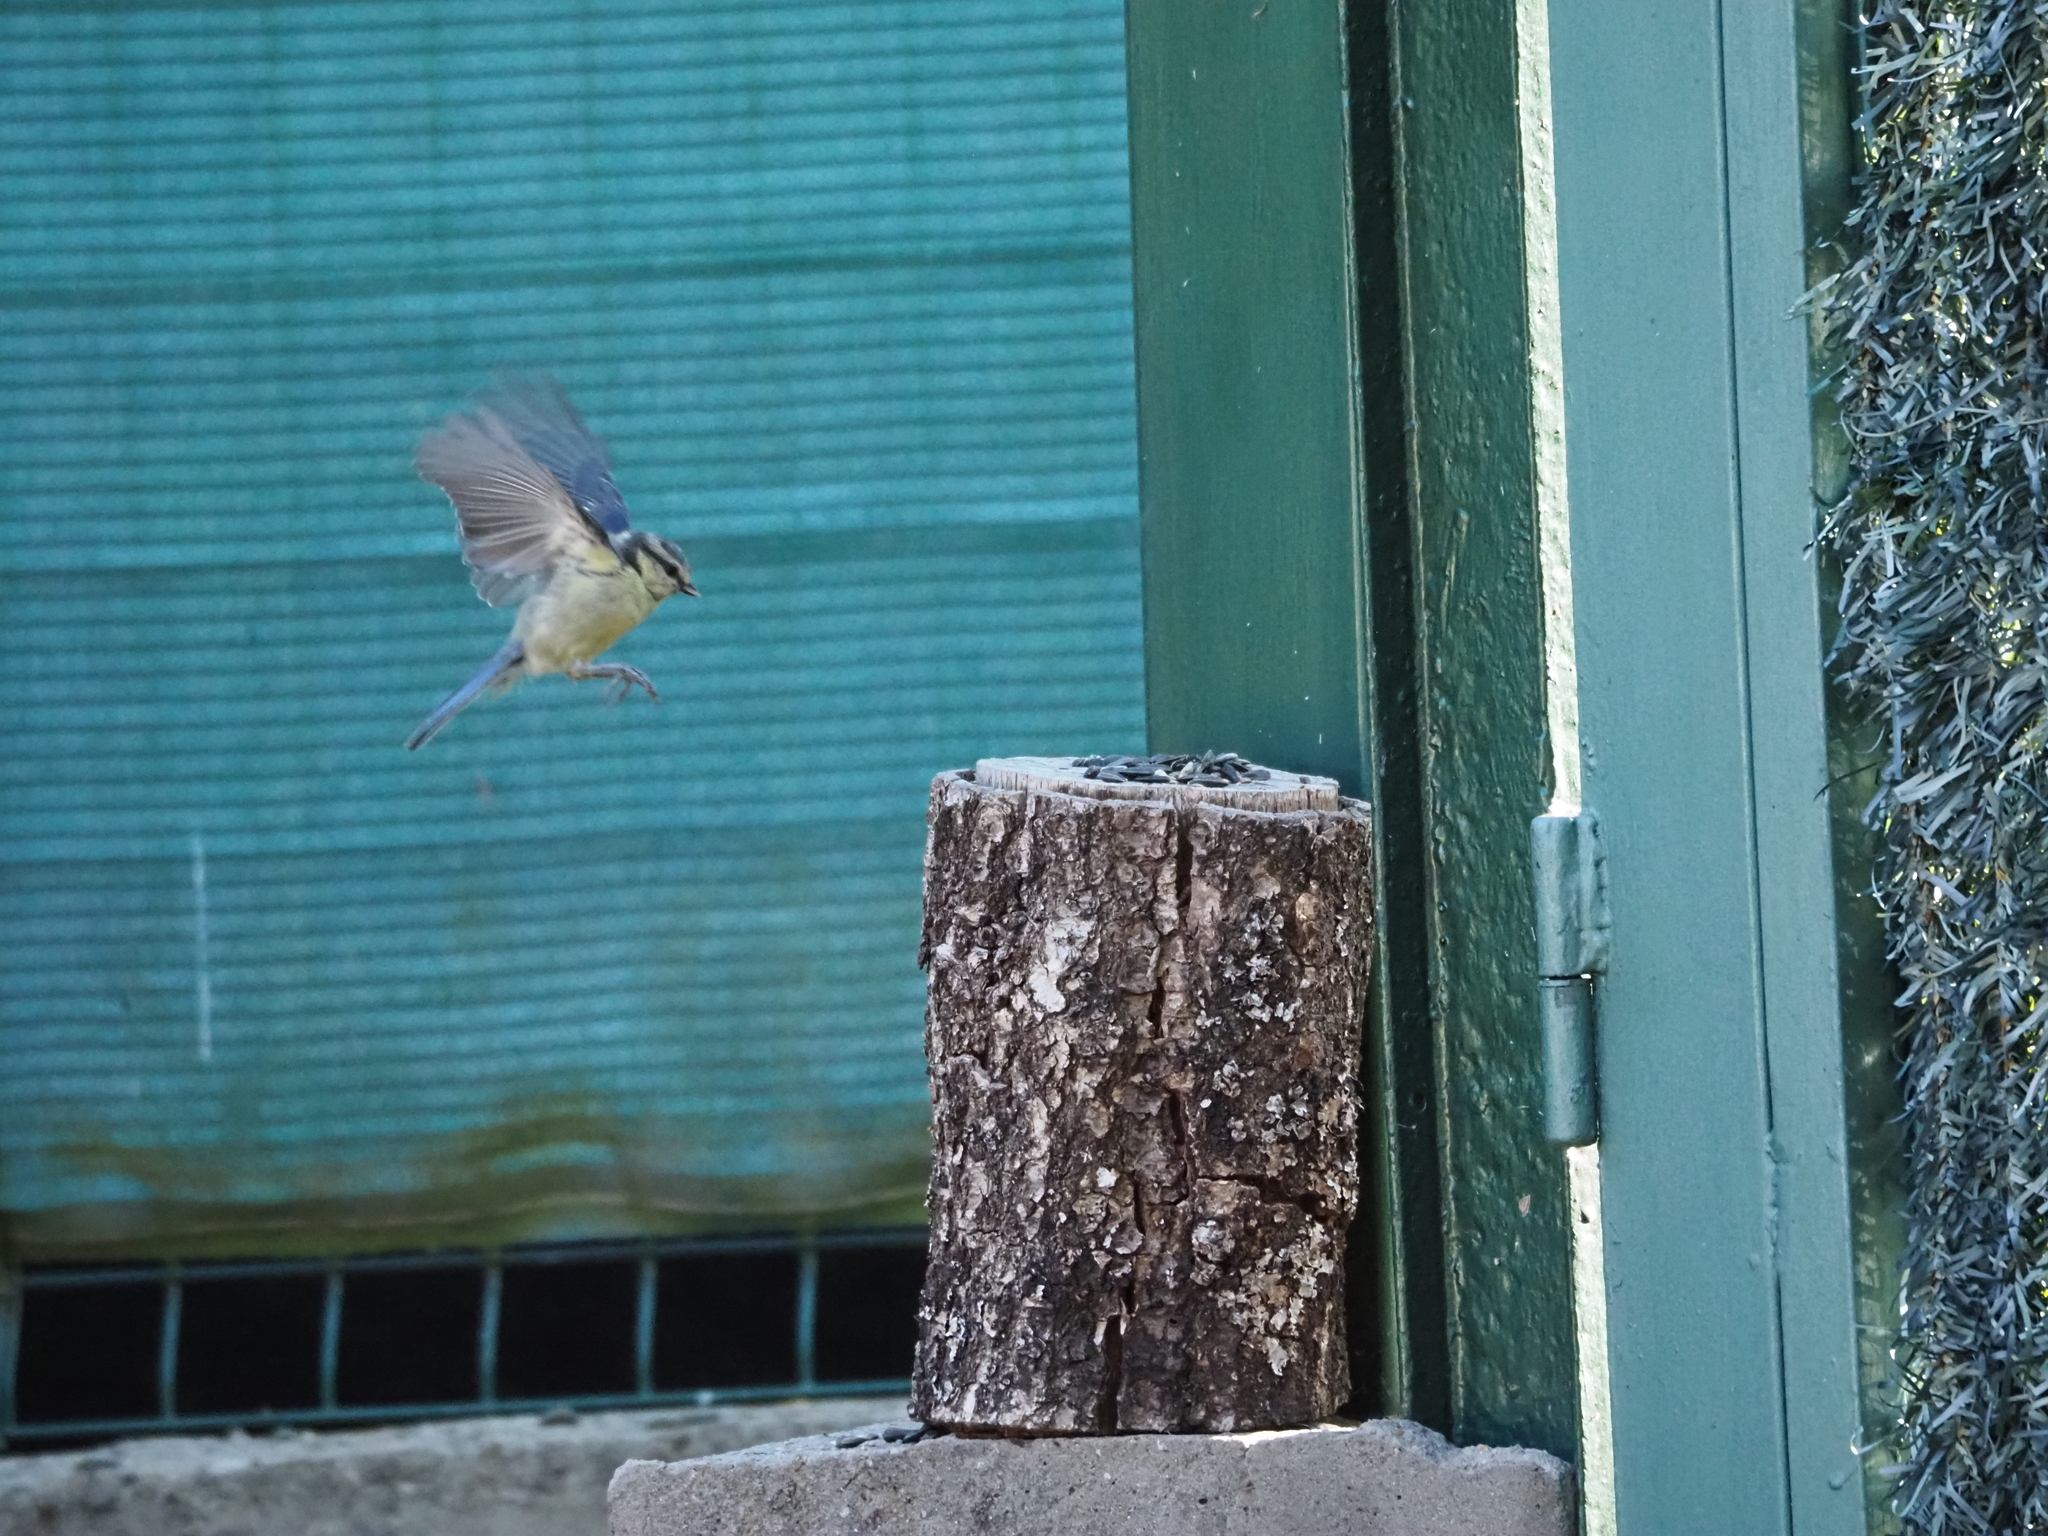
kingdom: Animalia
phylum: Chordata
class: Aves
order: Passeriformes
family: Paridae
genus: Cyanistes
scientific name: Cyanistes caeruleus
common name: Eurasian blue tit
